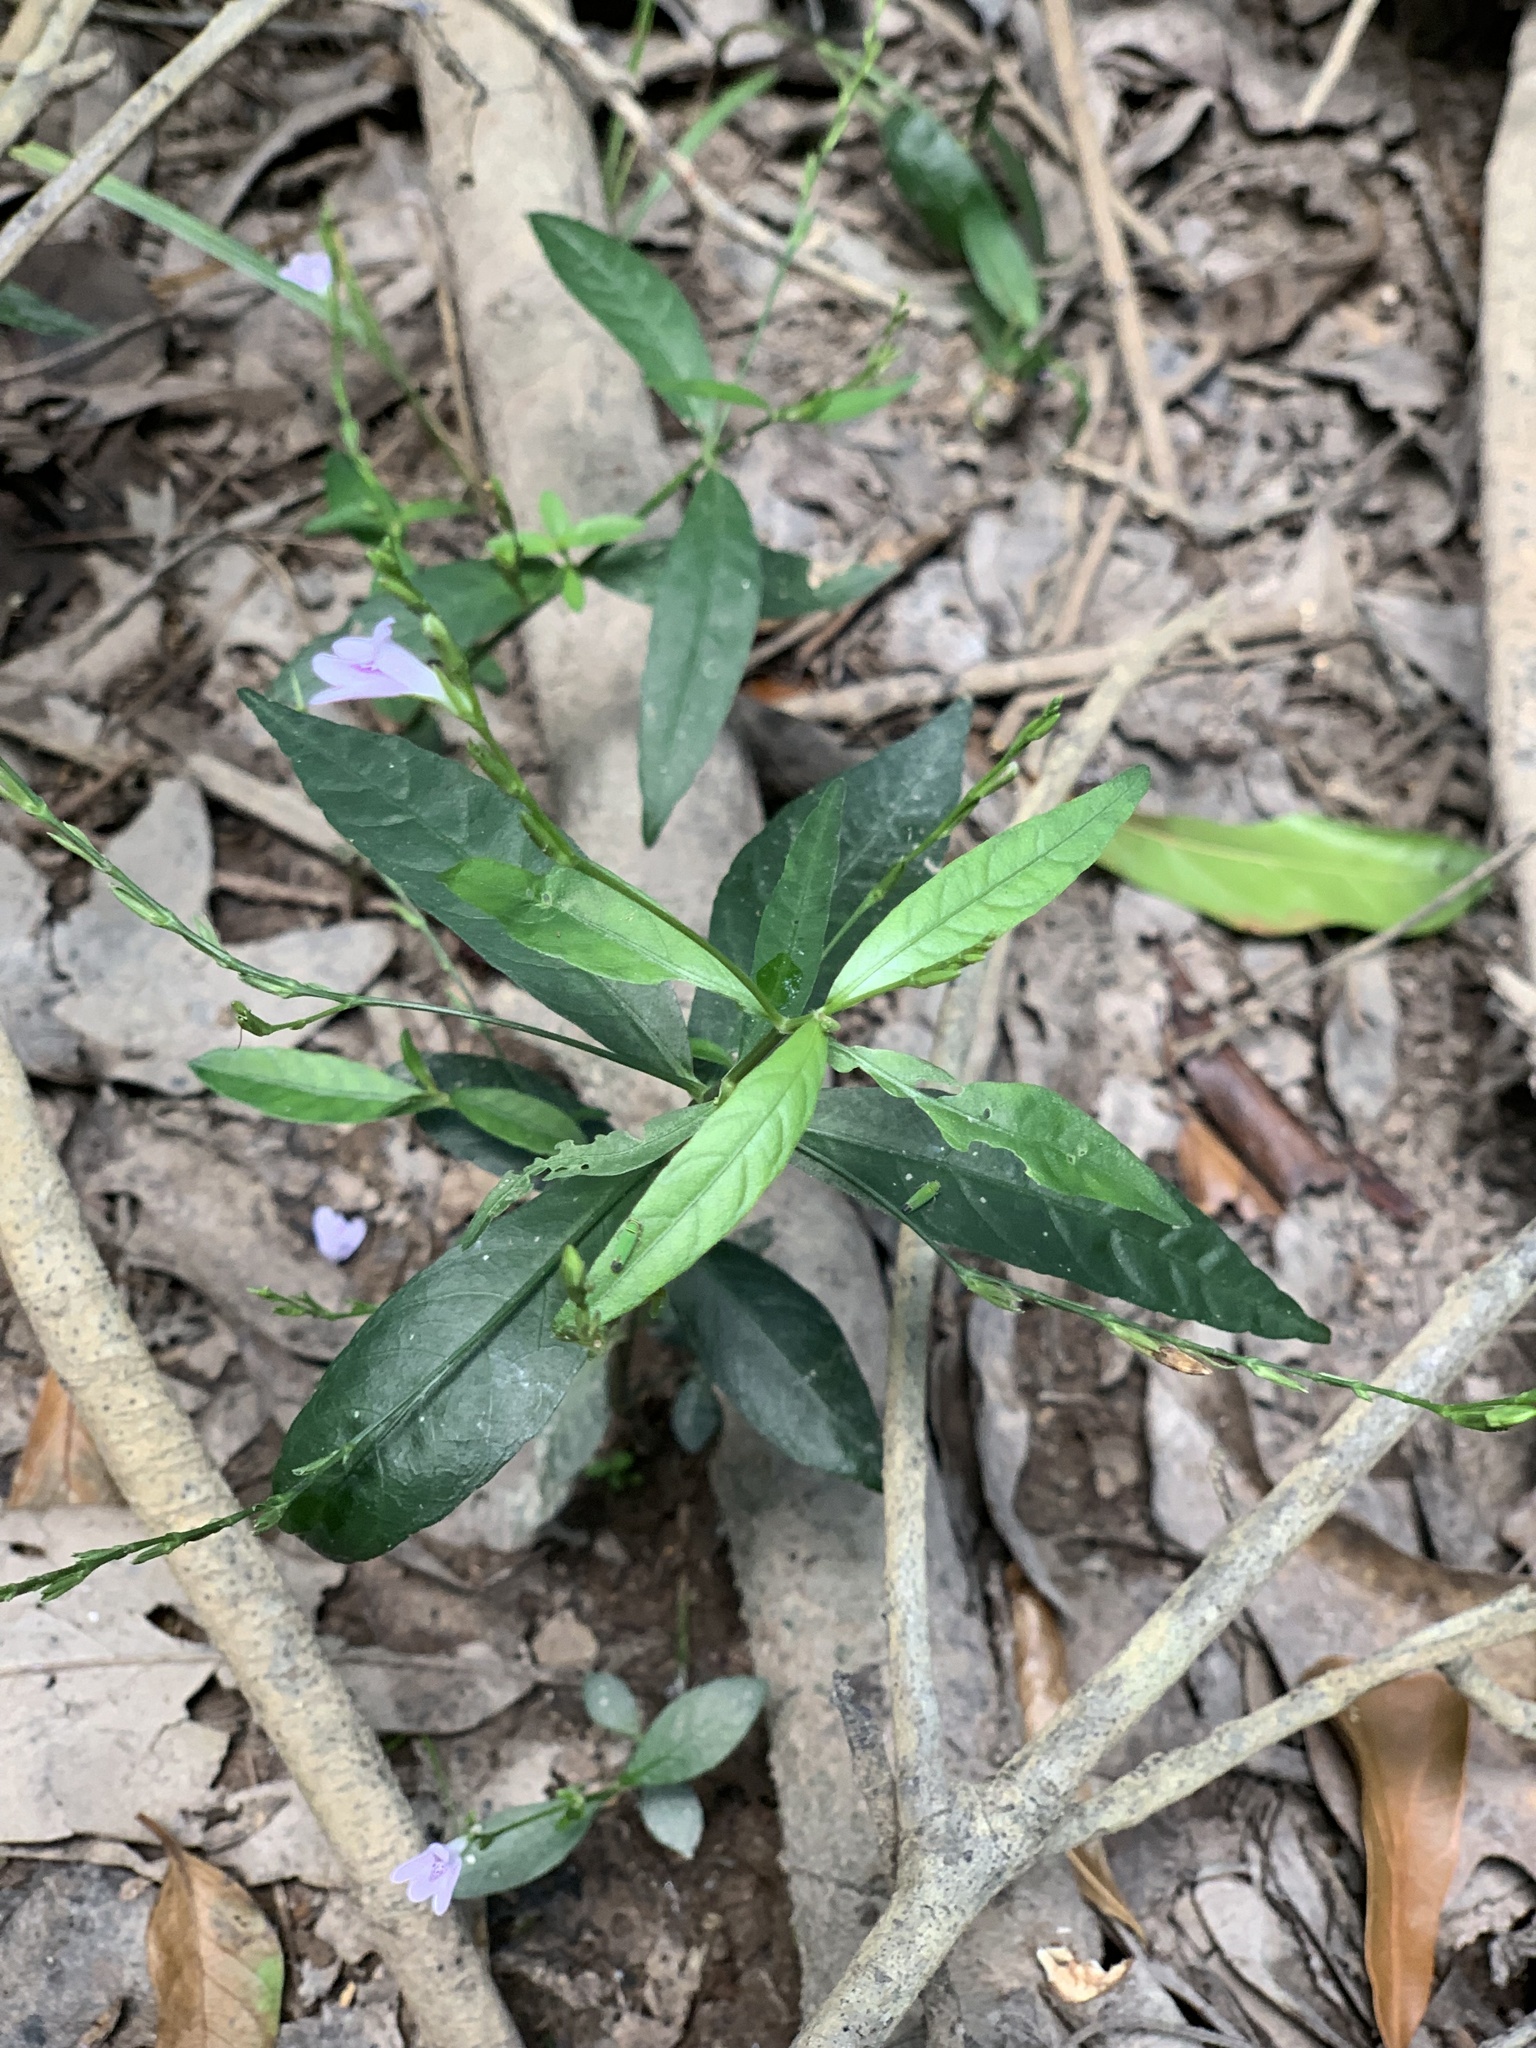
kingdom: Plantae
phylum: Tracheophyta
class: Magnoliopsida
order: Lamiales
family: Acanthaceae
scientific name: Acanthaceae
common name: Acanthaceae
